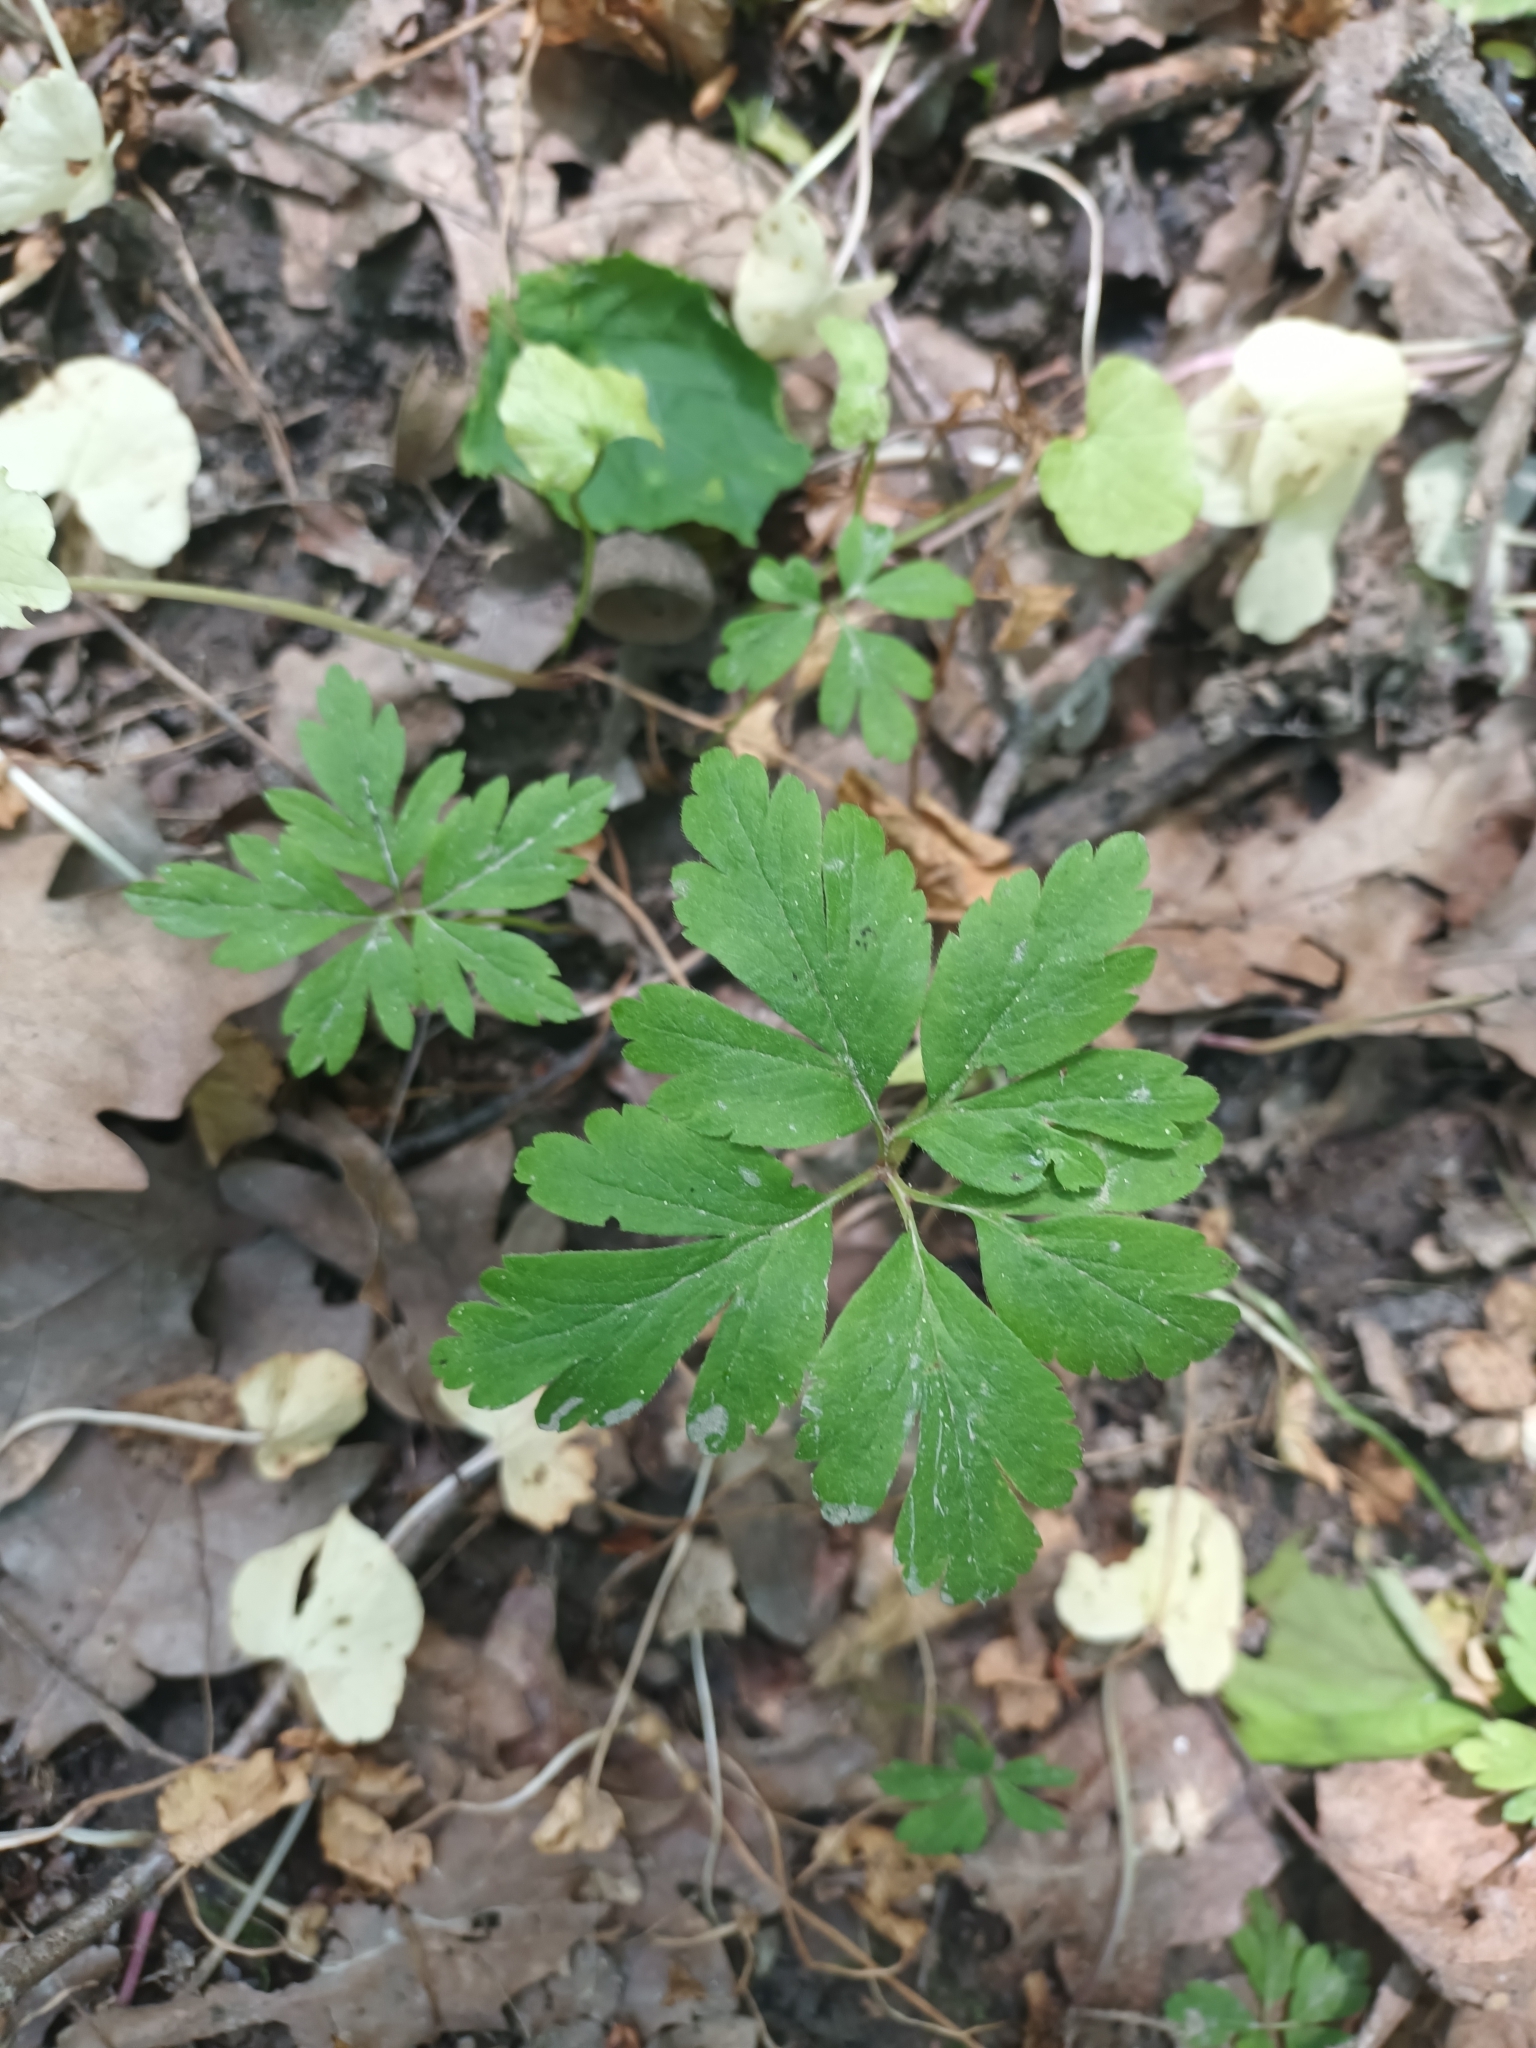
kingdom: Plantae
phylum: Tracheophyta
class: Magnoliopsida
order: Ranunculales
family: Ranunculaceae
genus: Anemone
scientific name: Anemone nemorosa
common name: Wood anemone
